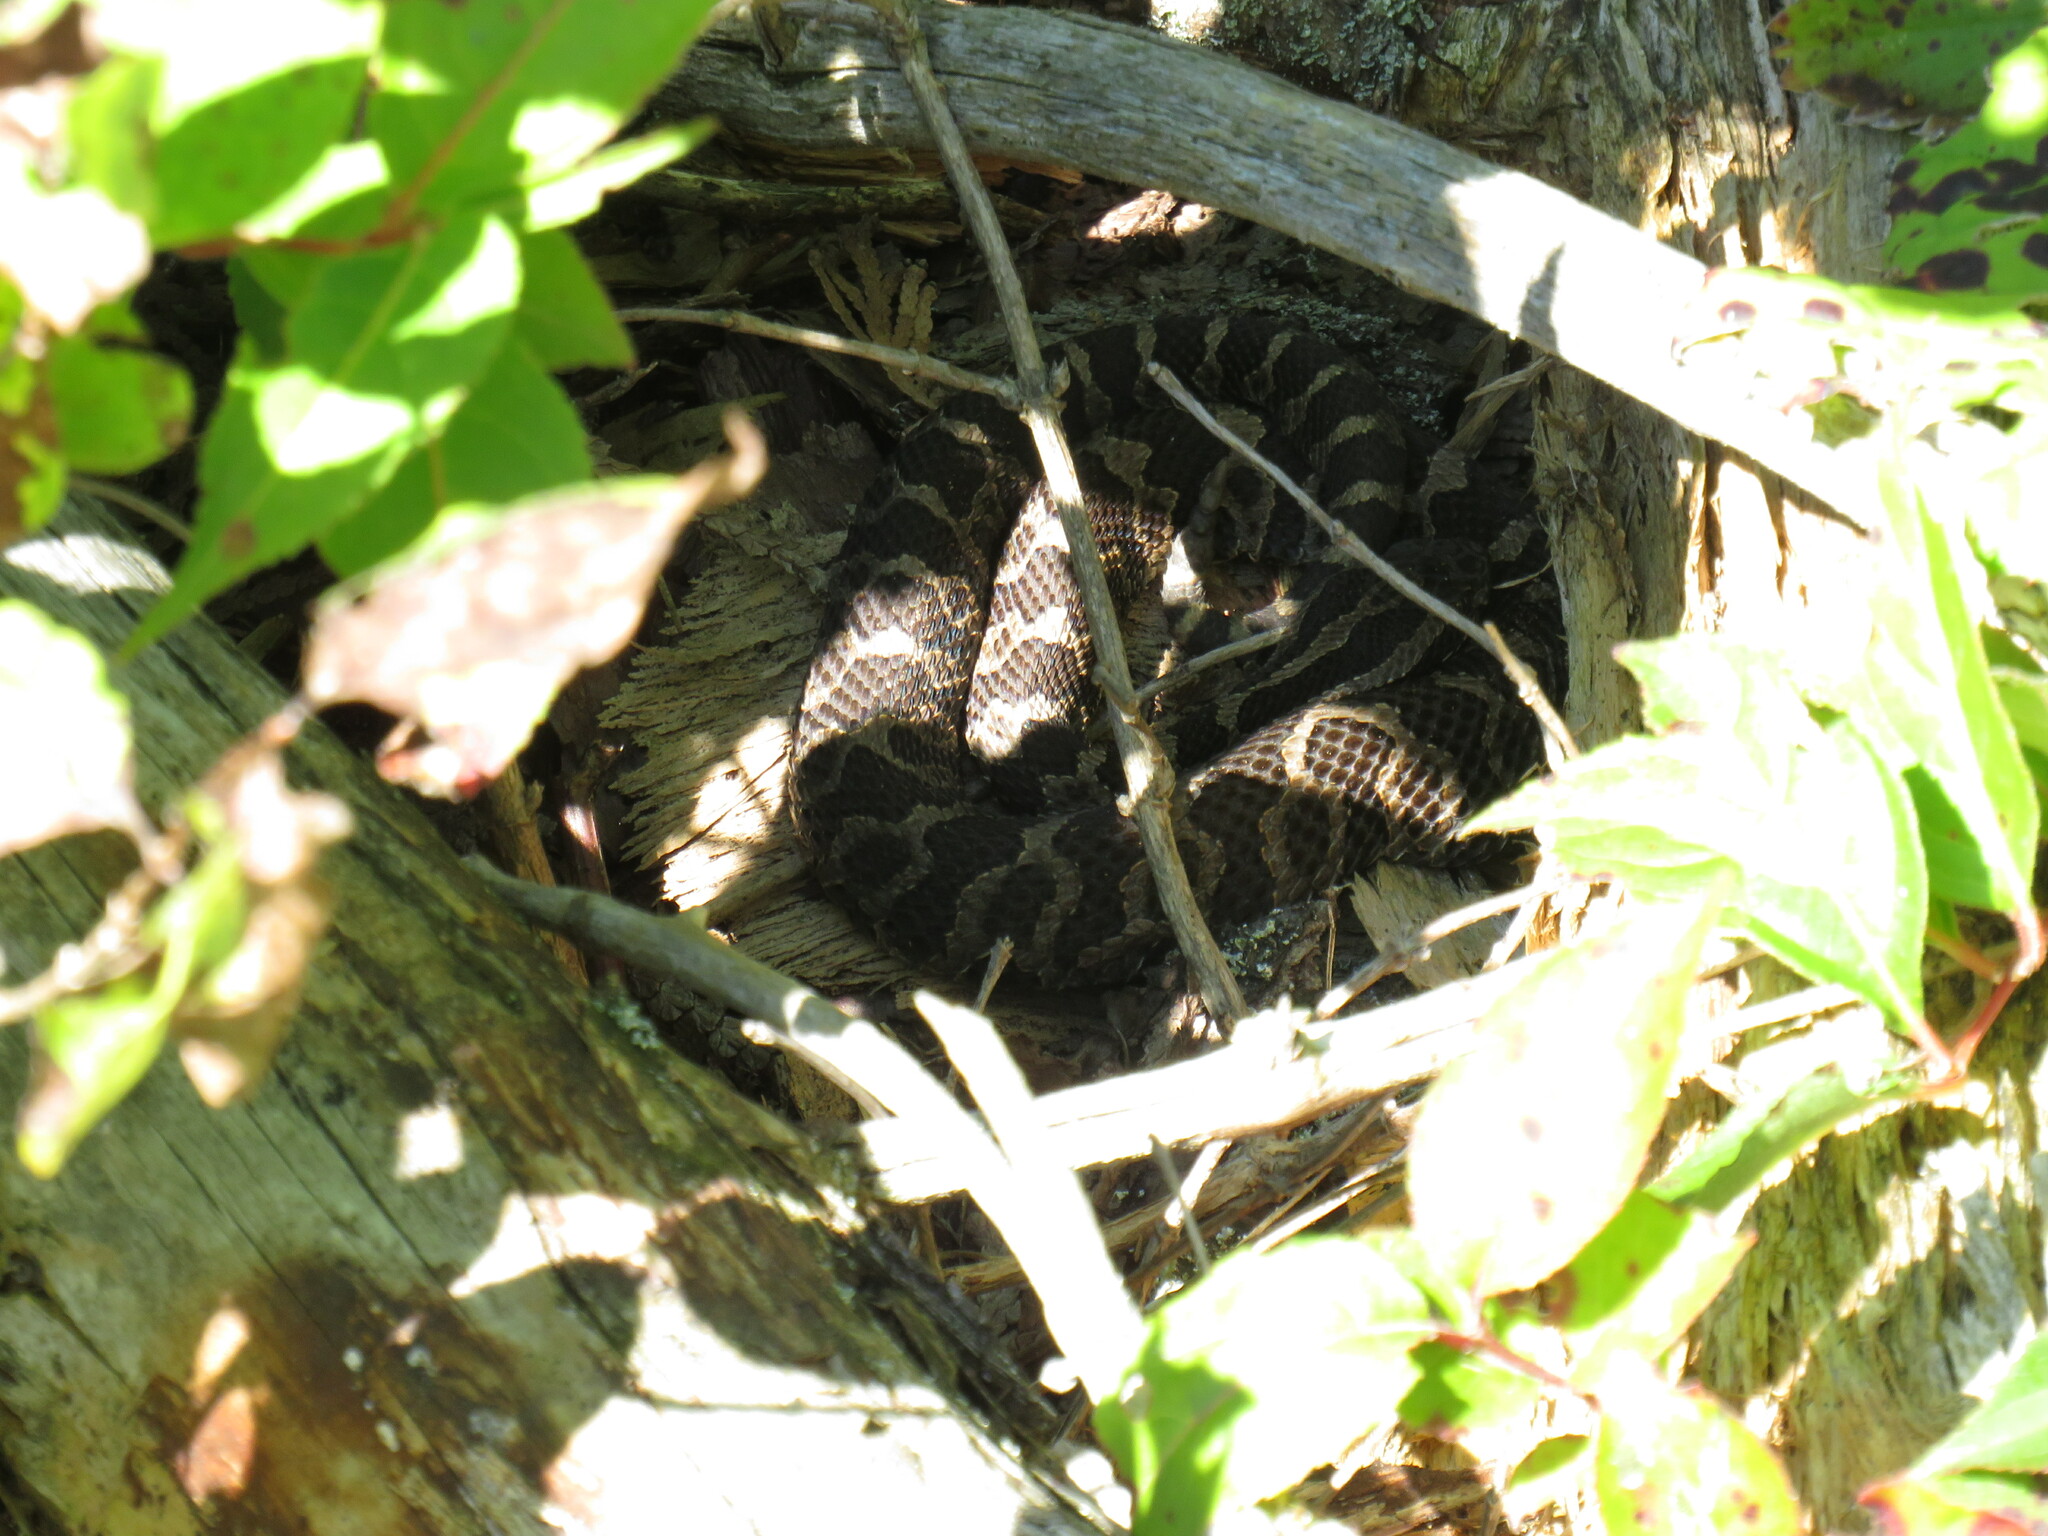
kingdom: Animalia
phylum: Chordata
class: Squamata
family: Viperidae
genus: Sistrurus
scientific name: Sistrurus catenatus
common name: Massasauga
